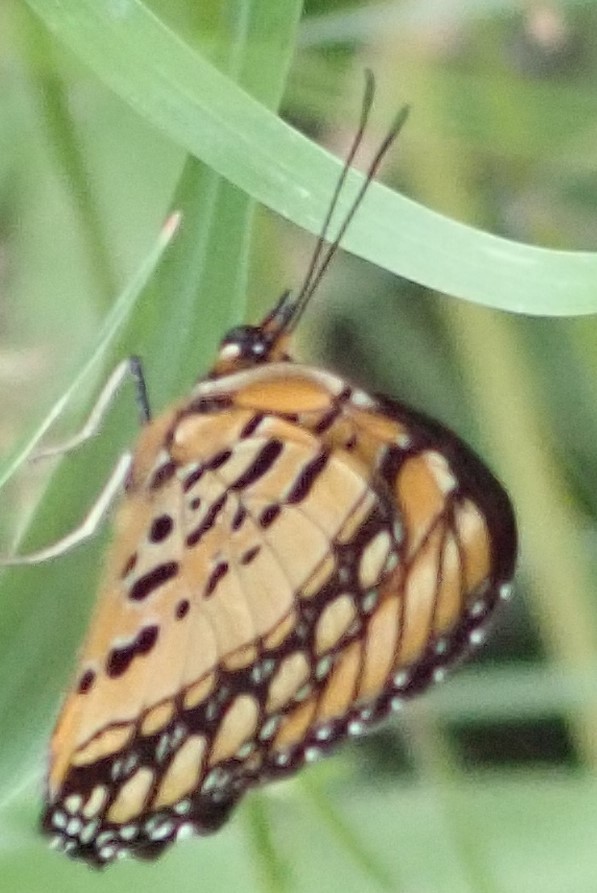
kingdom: Animalia
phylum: Arthropoda
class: Insecta
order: Lepidoptera
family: Nymphalidae
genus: Byblia
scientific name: Byblia acheloia
